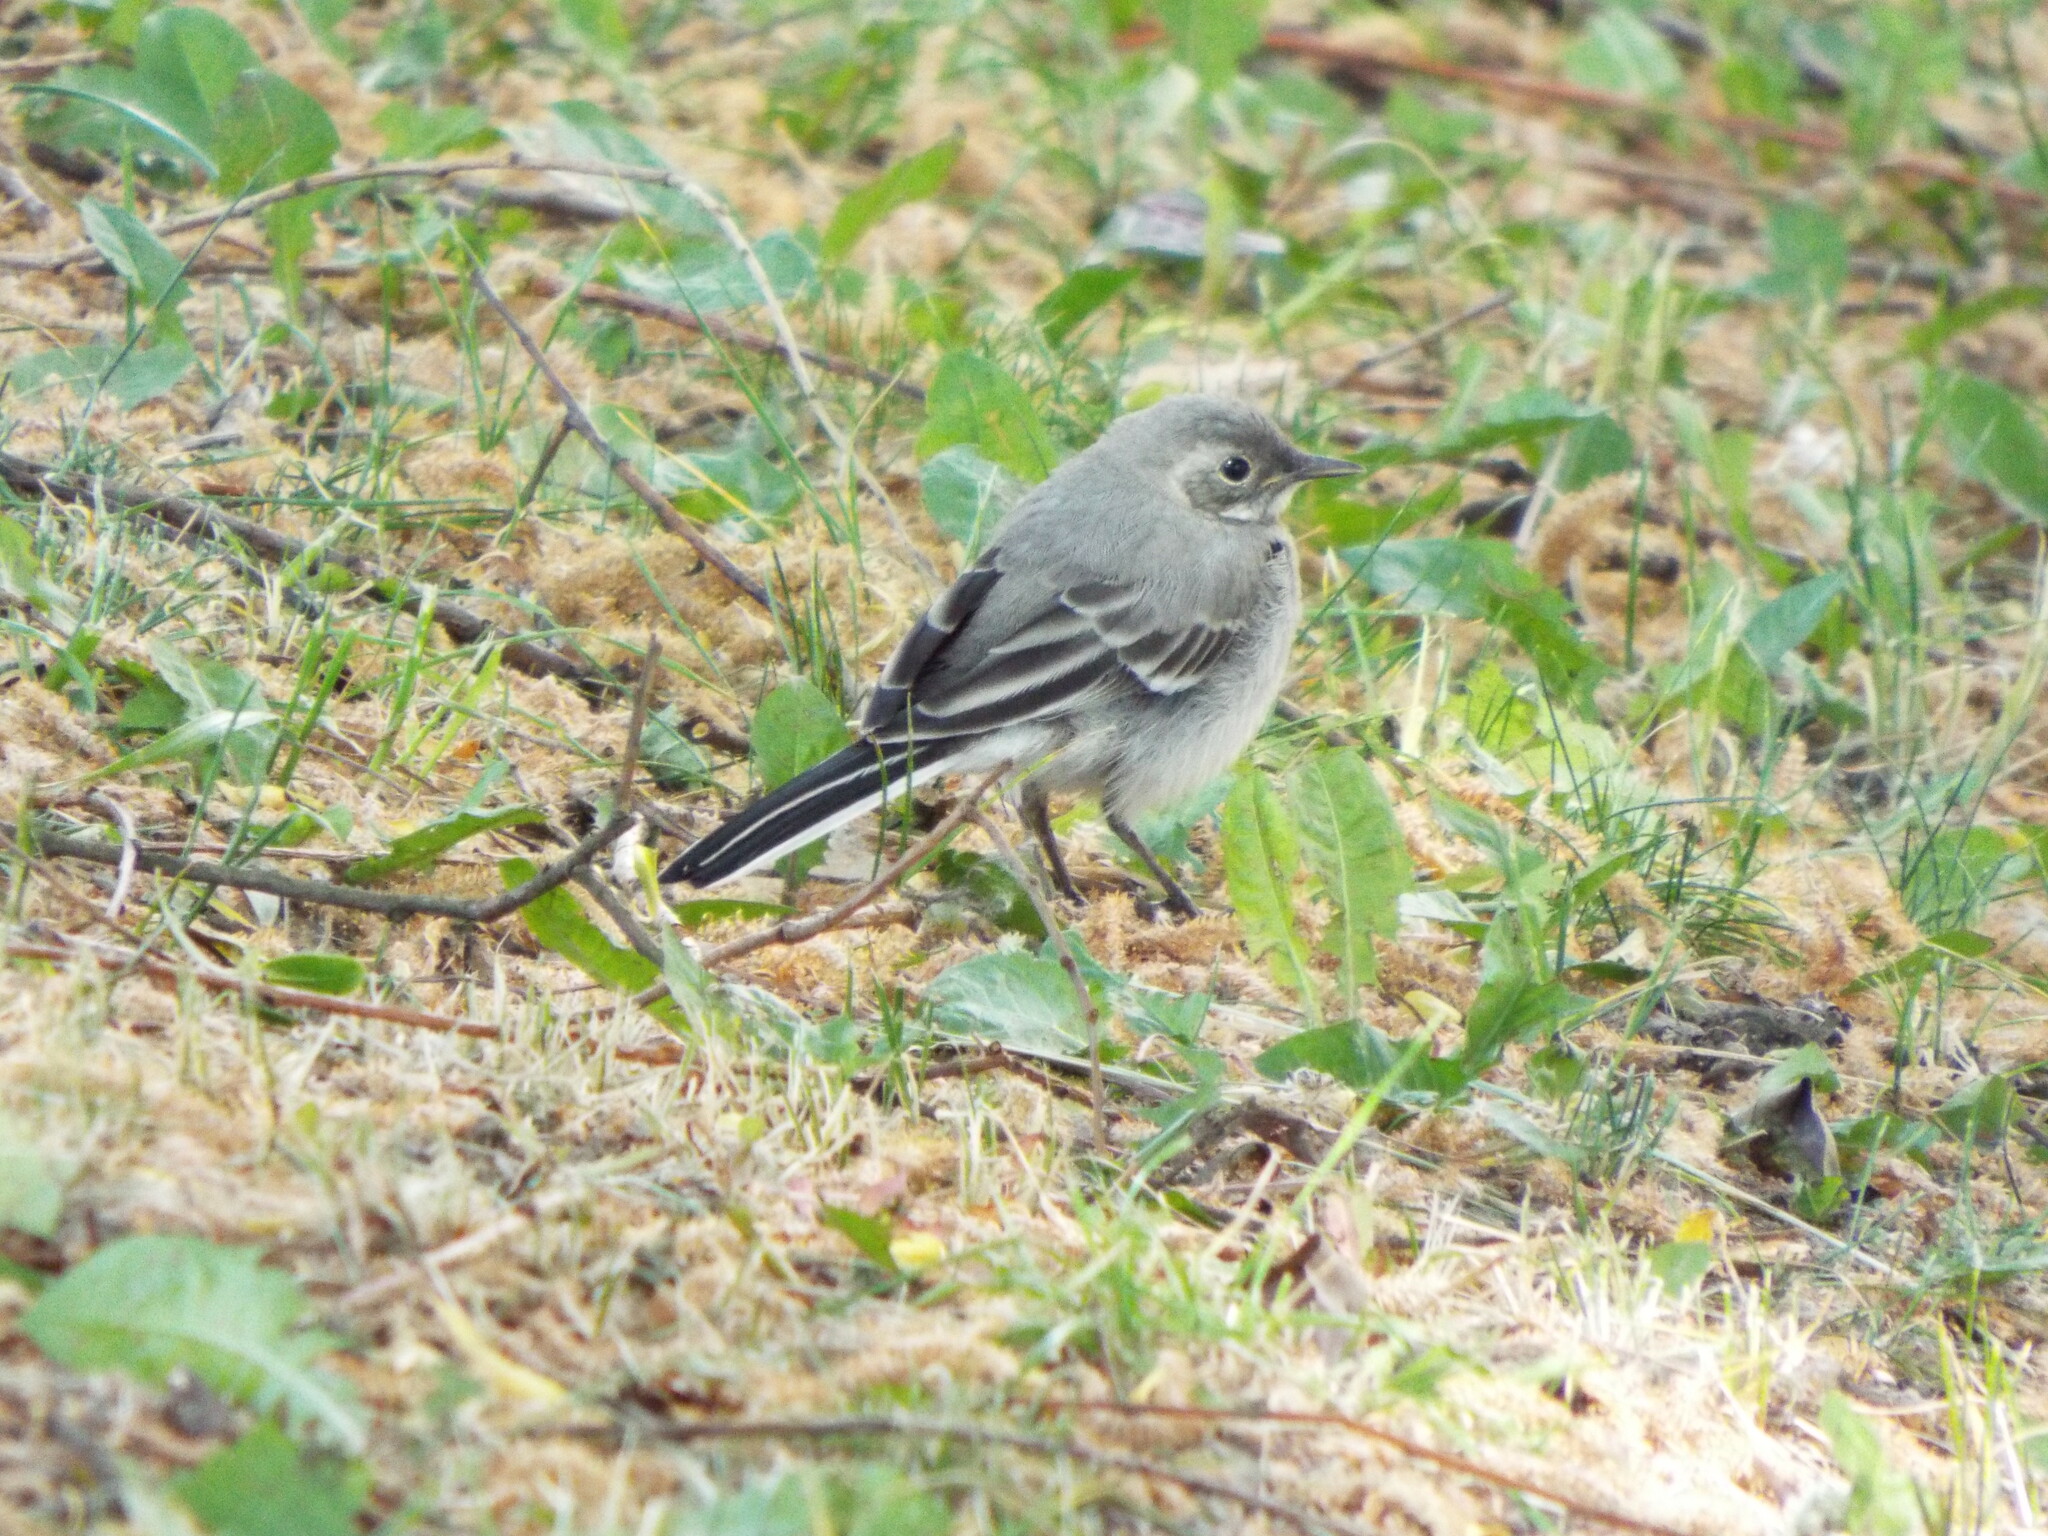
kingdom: Animalia
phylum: Chordata
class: Aves
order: Passeriformes
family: Motacillidae
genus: Motacilla
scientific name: Motacilla alba
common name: White wagtail
